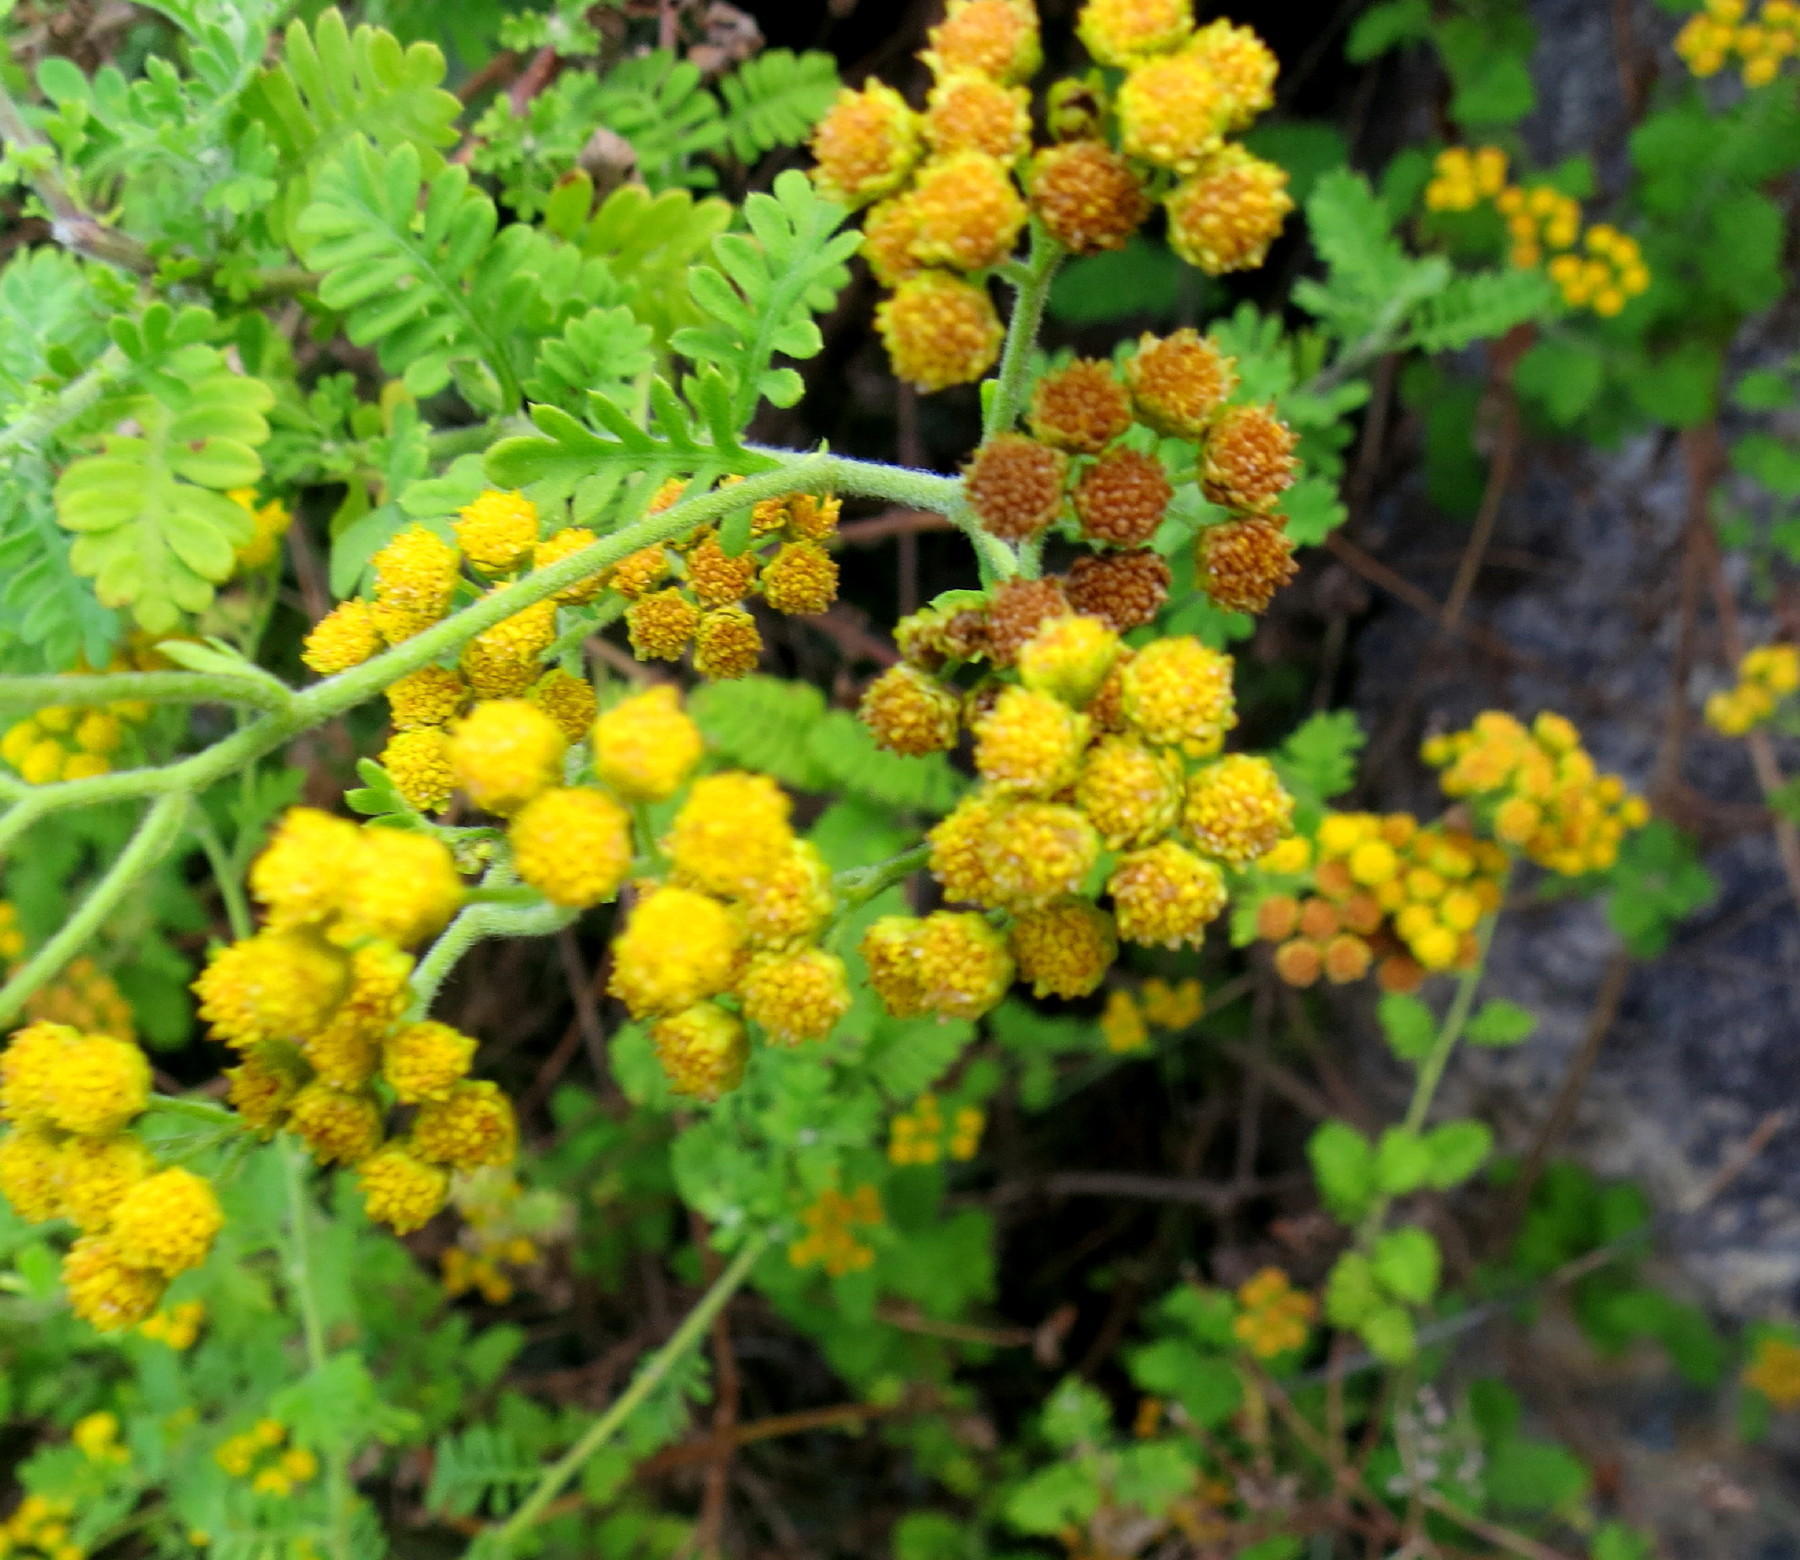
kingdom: Plantae
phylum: Tracheophyta
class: Magnoliopsida
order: Asterales
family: Asteraceae
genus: Hippia
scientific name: Hippia frutescens
